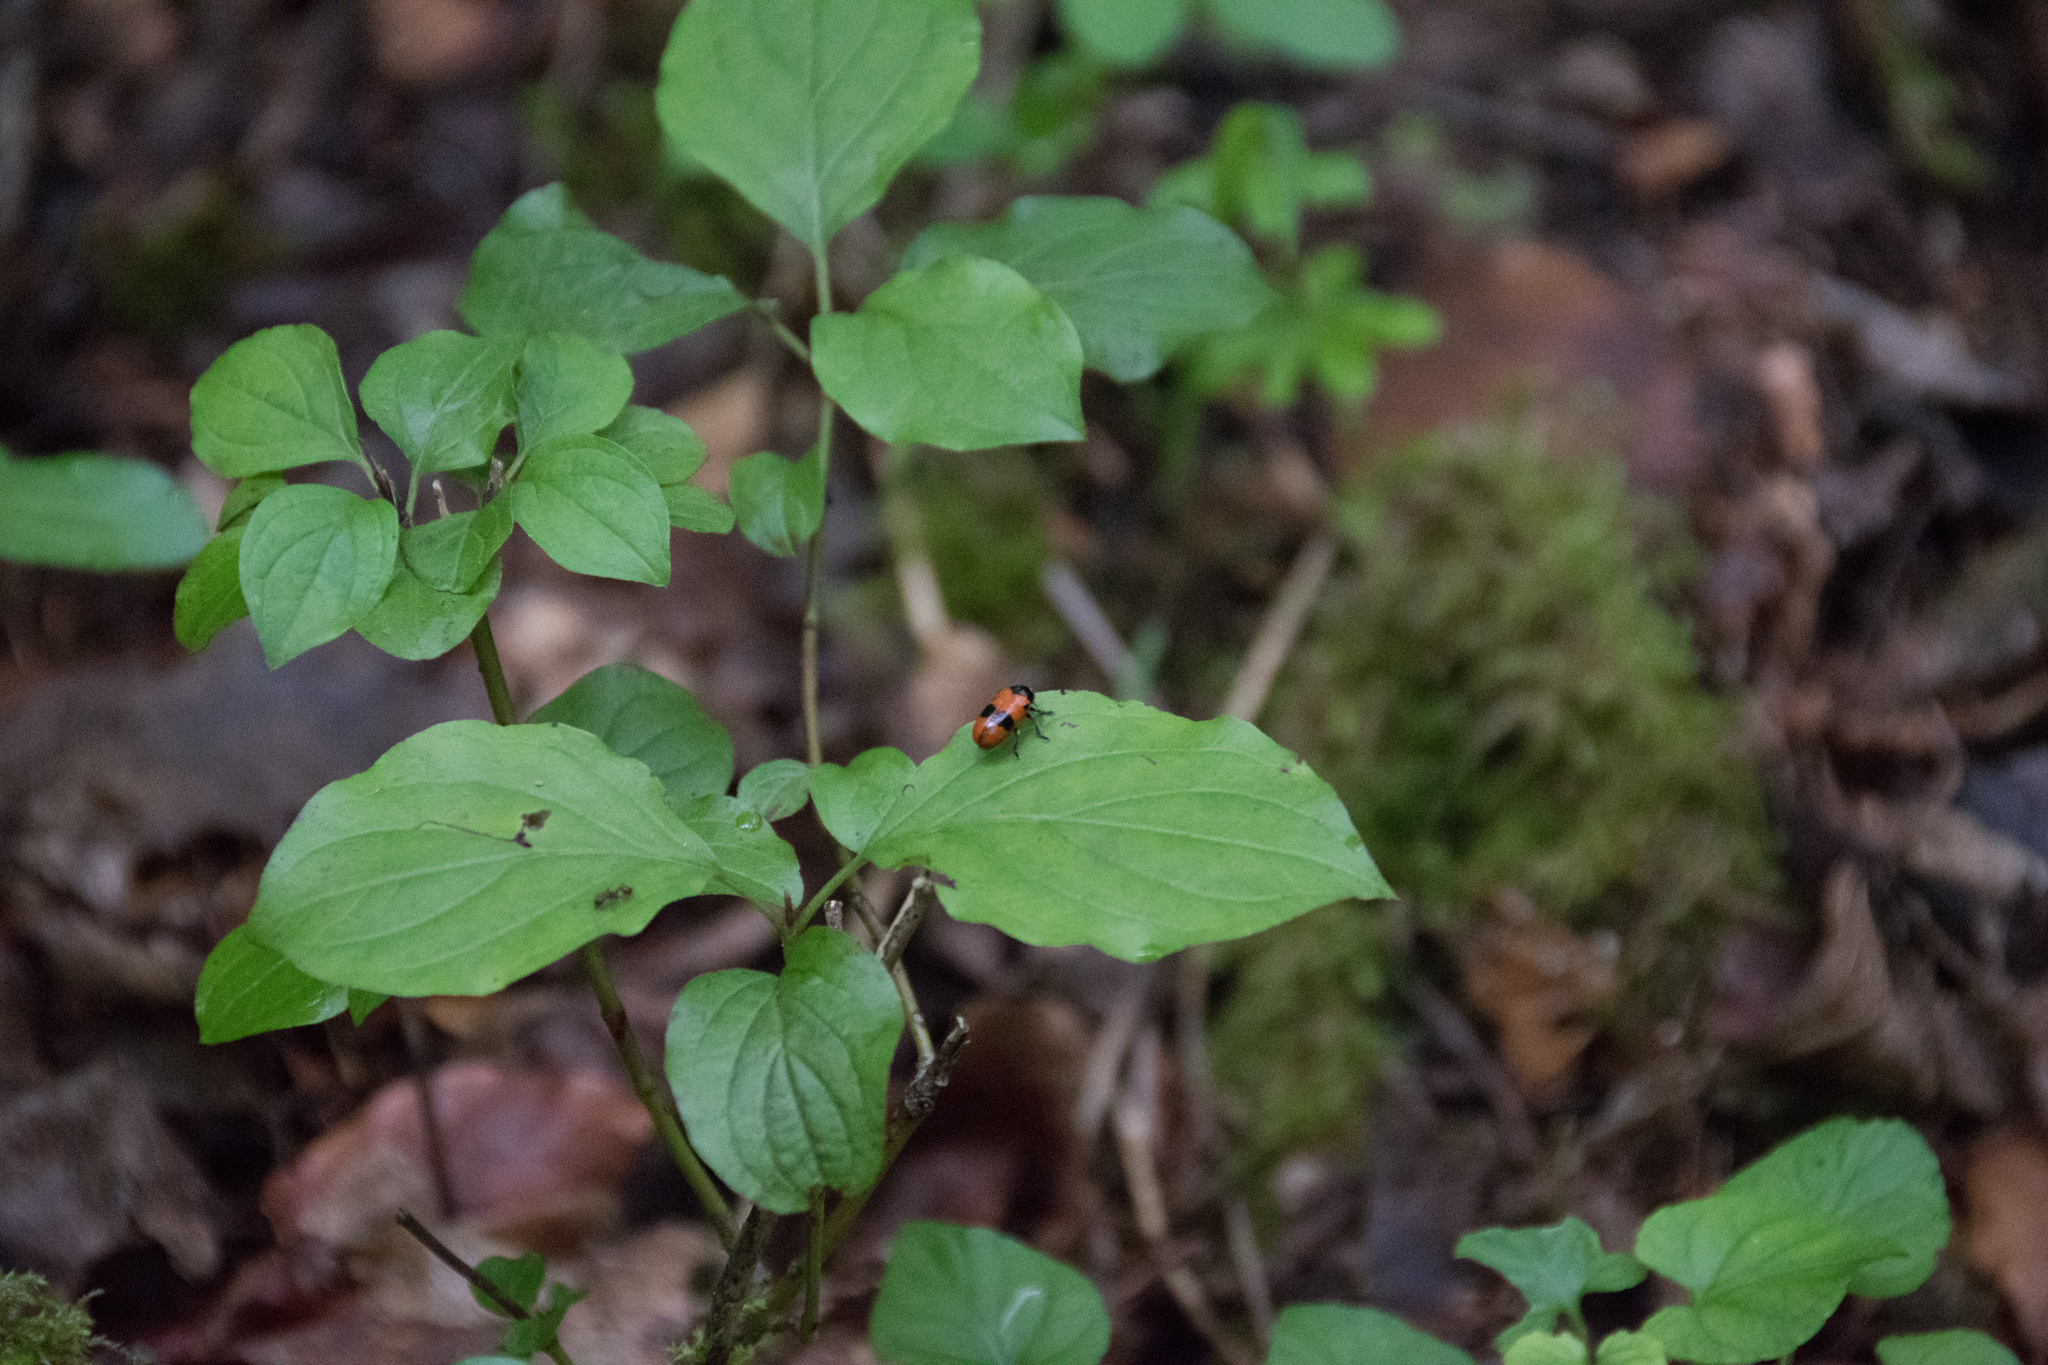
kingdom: Animalia
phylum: Arthropoda
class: Insecta
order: Coleoptera
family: Chrysomelidae
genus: Clytra
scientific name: Clytra laeviuscula
